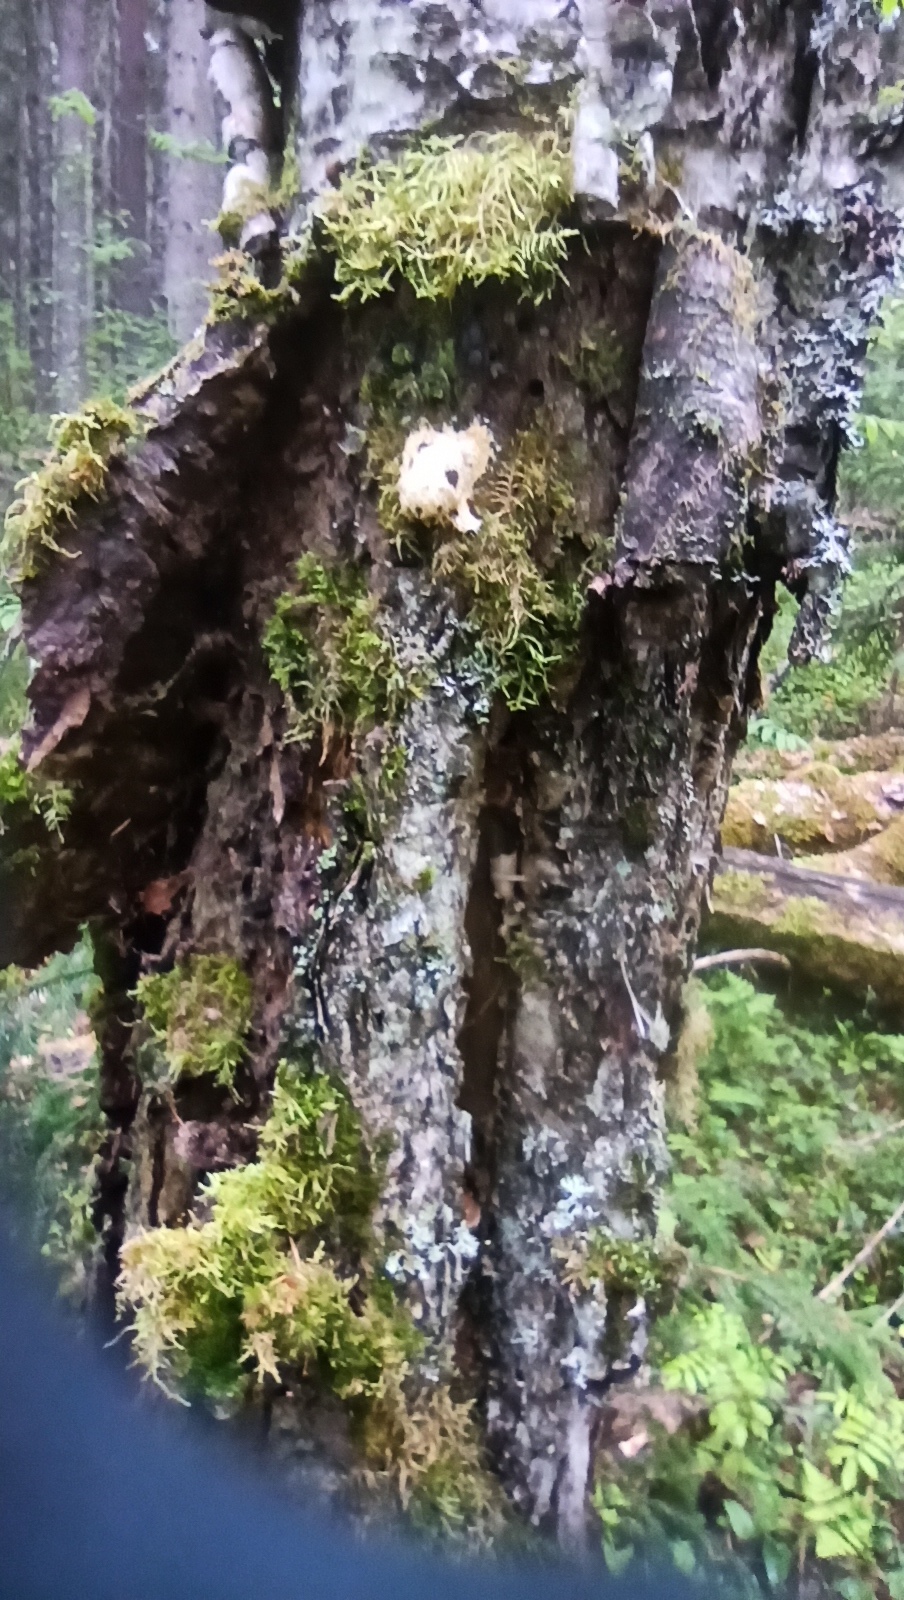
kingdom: Protozoa
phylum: Mycetozoa
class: Myxomycetes
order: Physarales
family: Physaraceae
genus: Fuligo
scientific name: Fuligo septica
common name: Dog vomit slime mold
